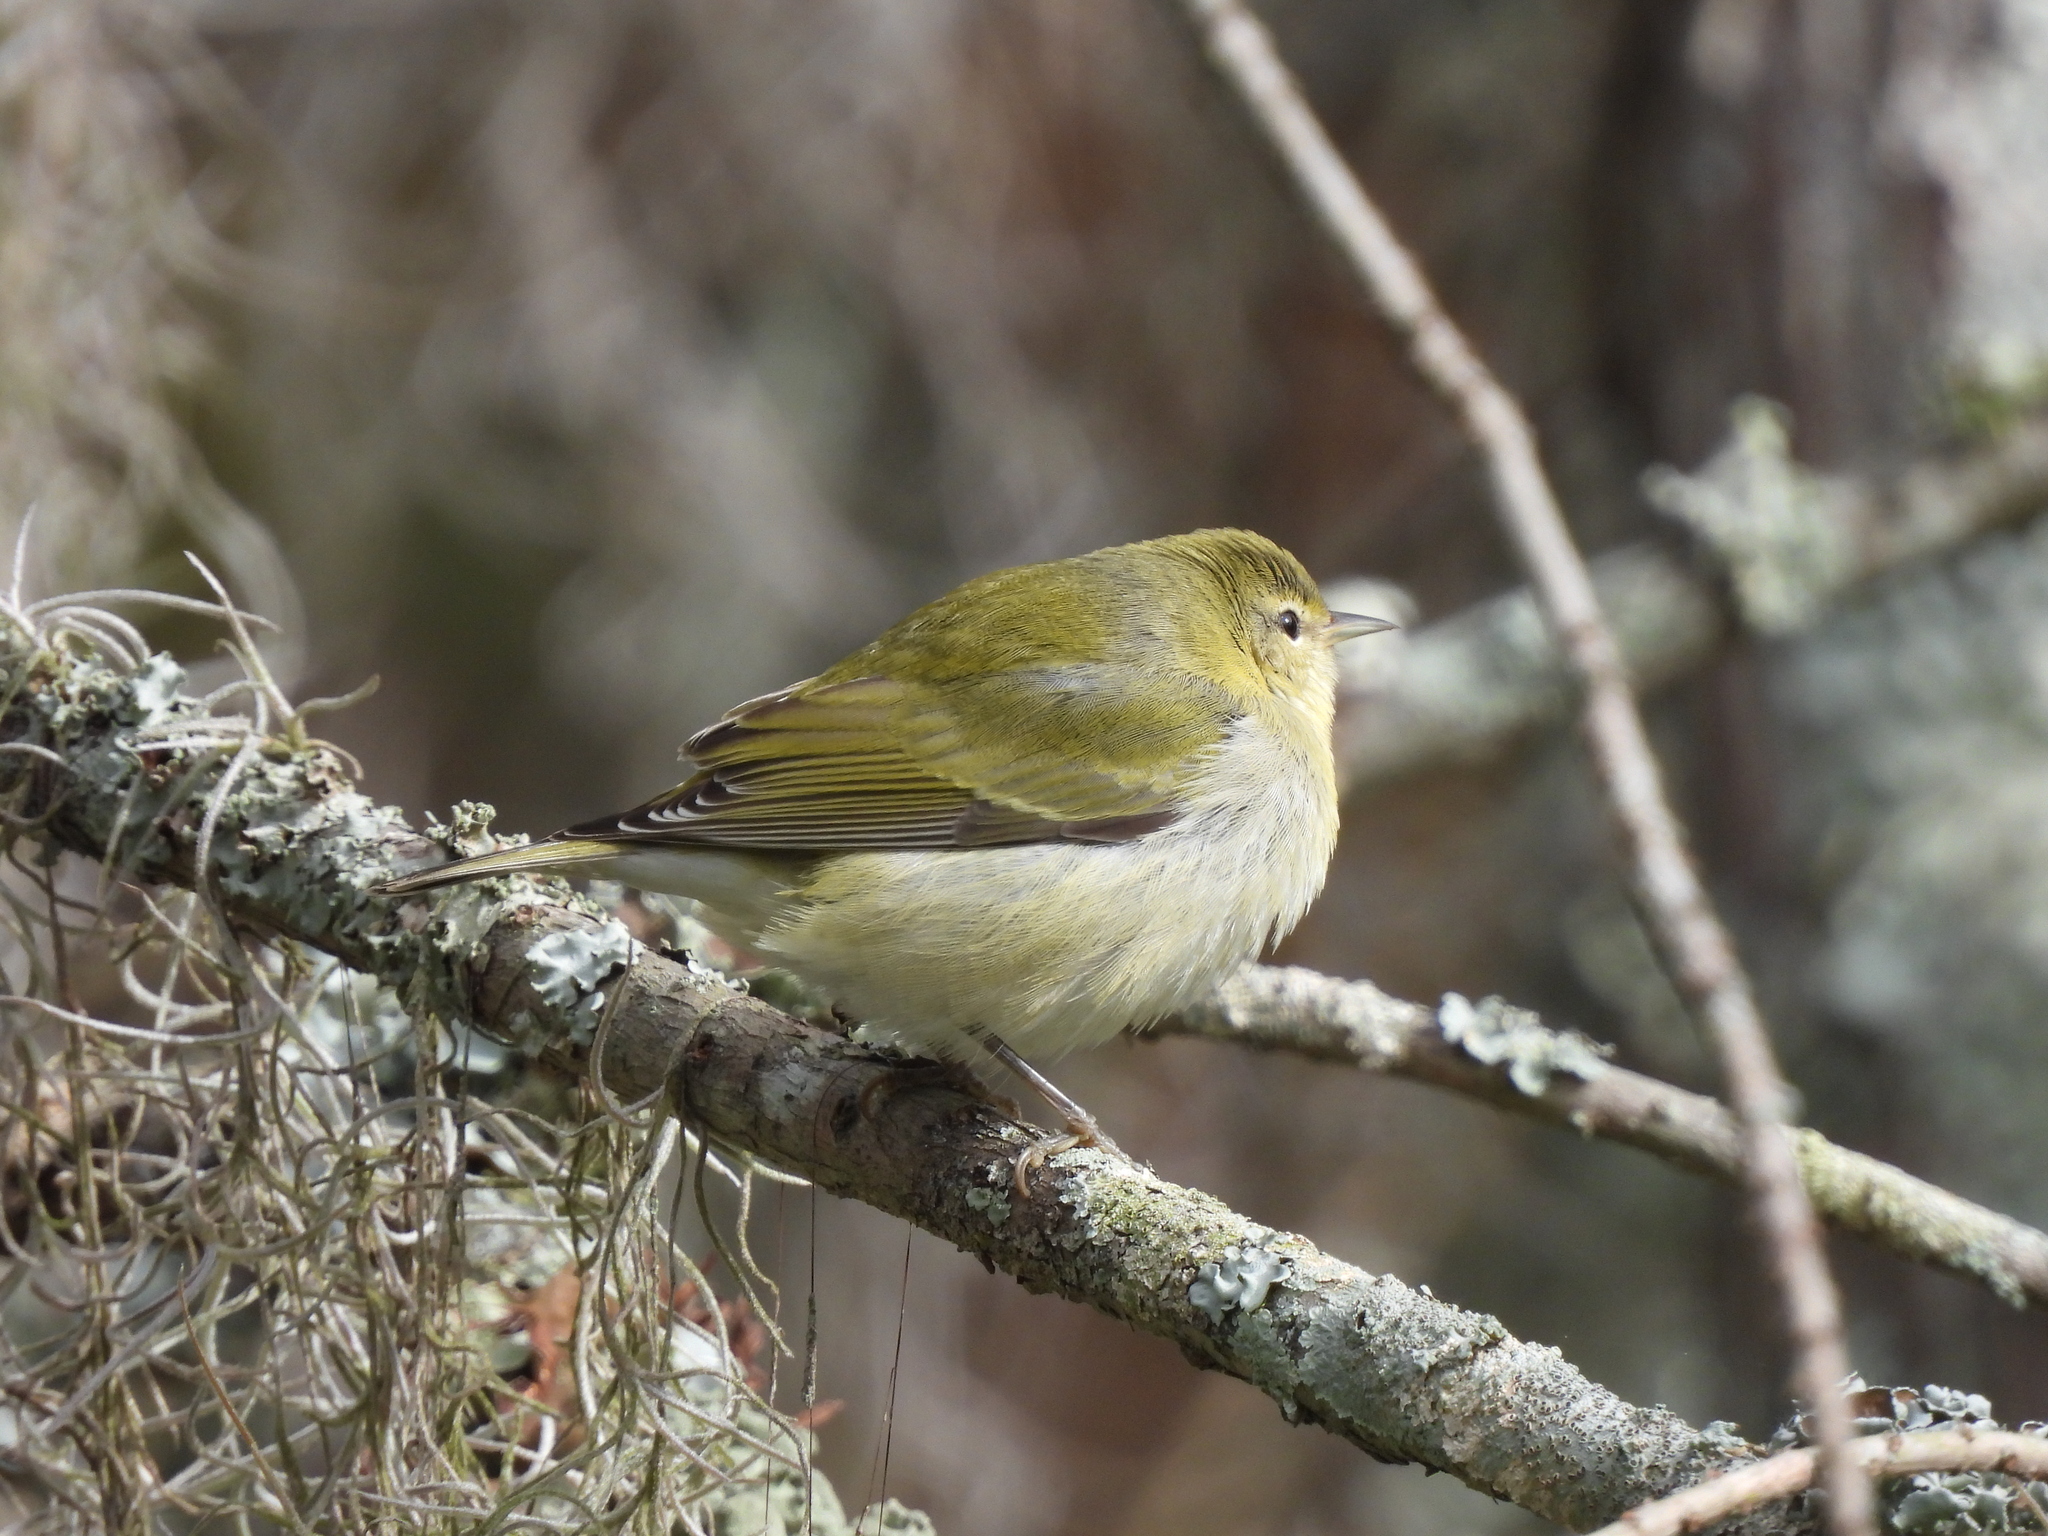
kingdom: Animalia
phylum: Chordata
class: Aves
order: Passeriformes
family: Parulidae
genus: Leiothlypis
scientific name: Leiothlypis peregrina
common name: Tennessee warbler
